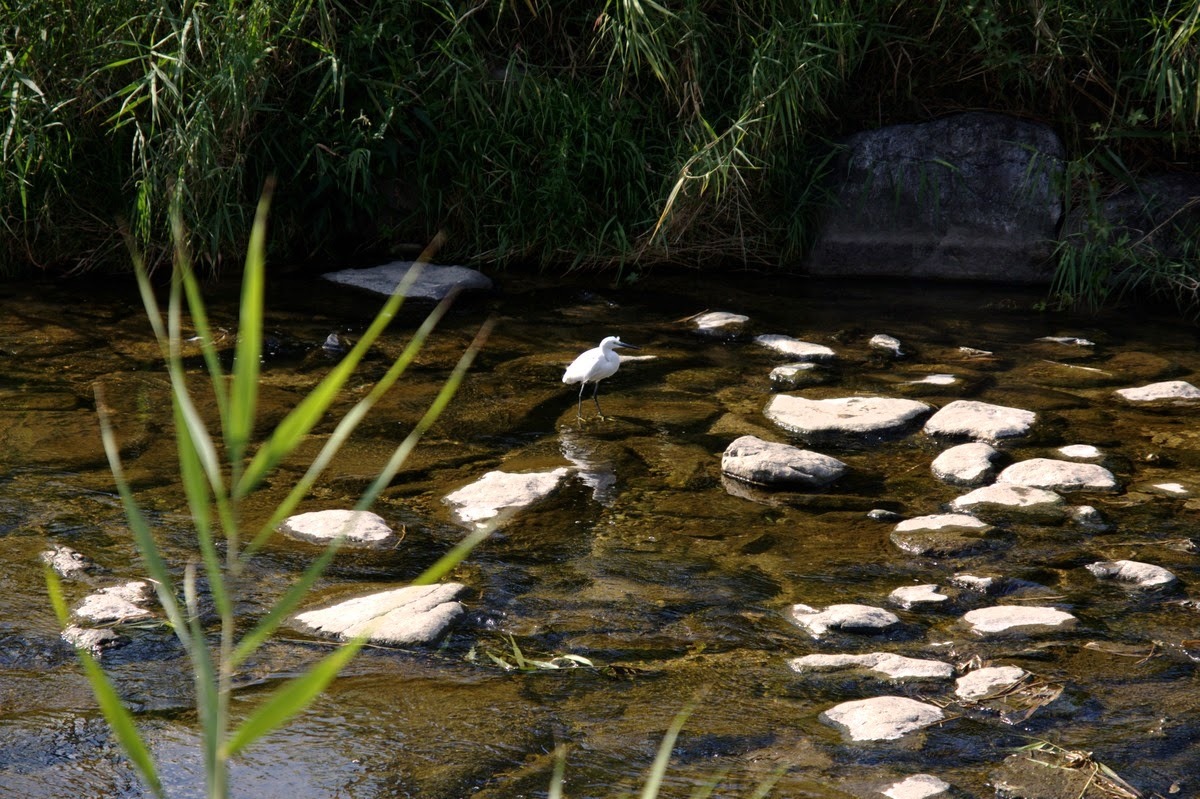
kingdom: Animalia
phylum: Chordata
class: Aves
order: Pelecaniformes
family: Ardeidae
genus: Egretta
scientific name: Egretta garzetta
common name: Little egret
